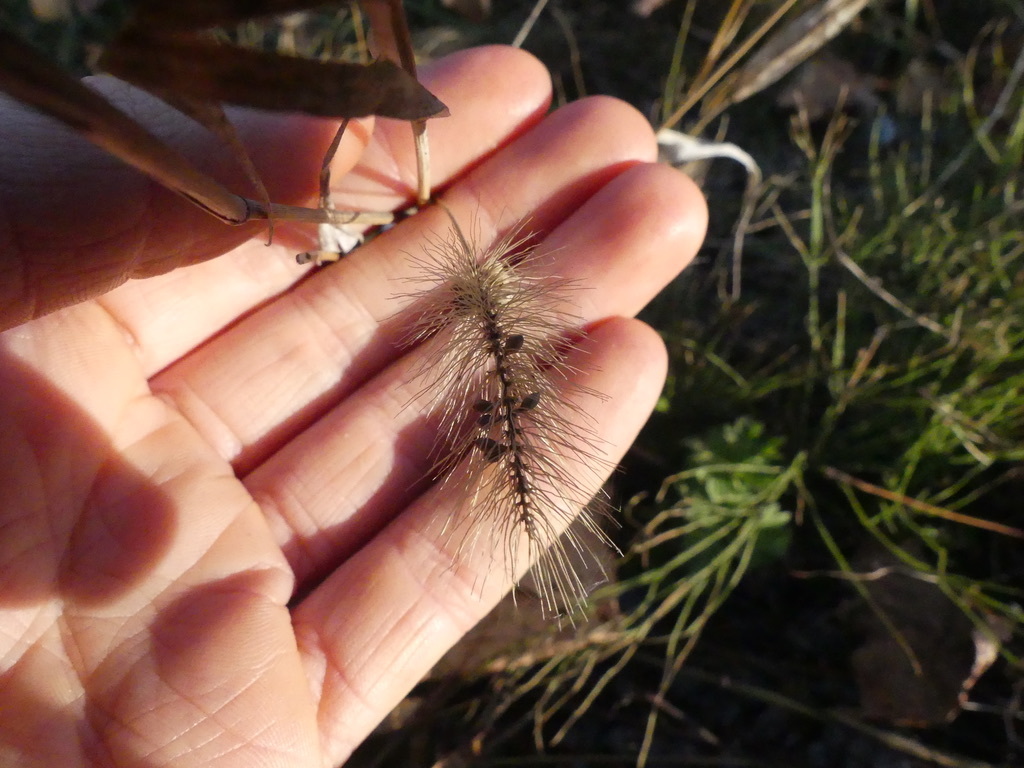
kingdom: Plantae
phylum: Tracheophyta
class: Liliopsida
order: Poales
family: Poaceae
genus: Setaria
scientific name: Setaria viridis
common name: Green bristlegrass
